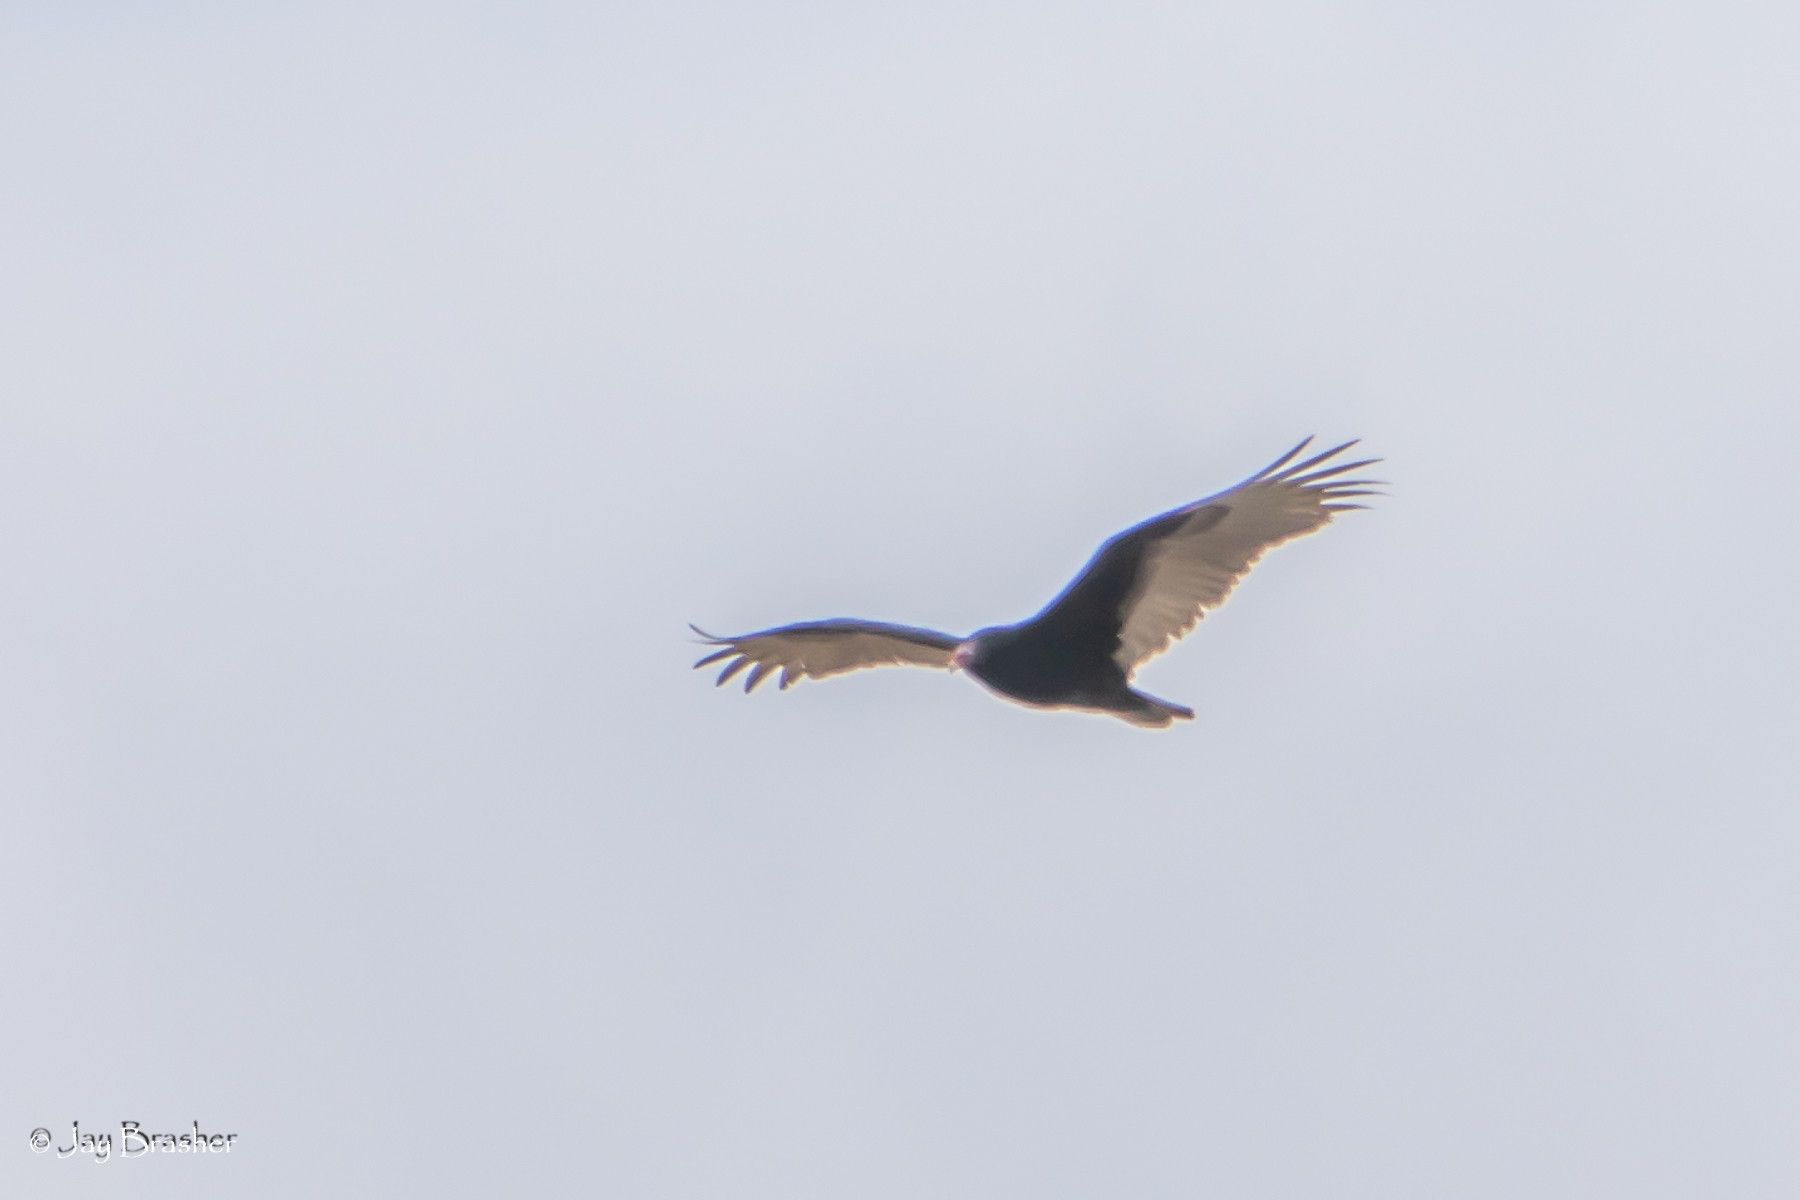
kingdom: Animalia
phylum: Chordata
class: Aves
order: Accipitriformes
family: Cathartidae
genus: Cathartes
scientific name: Cathartes aura
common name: Turkey vulture
